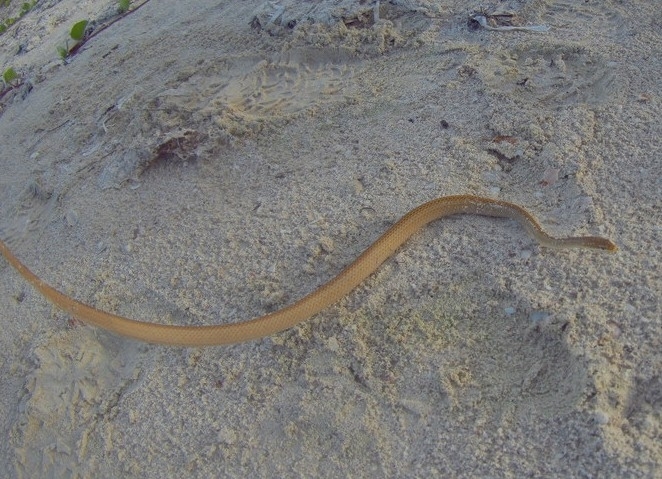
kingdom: Animalia
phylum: Chordata
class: Squamata
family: Colubridae
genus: Symphimus
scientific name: Symphimus mayae
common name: Yucatán white-lipped snake
